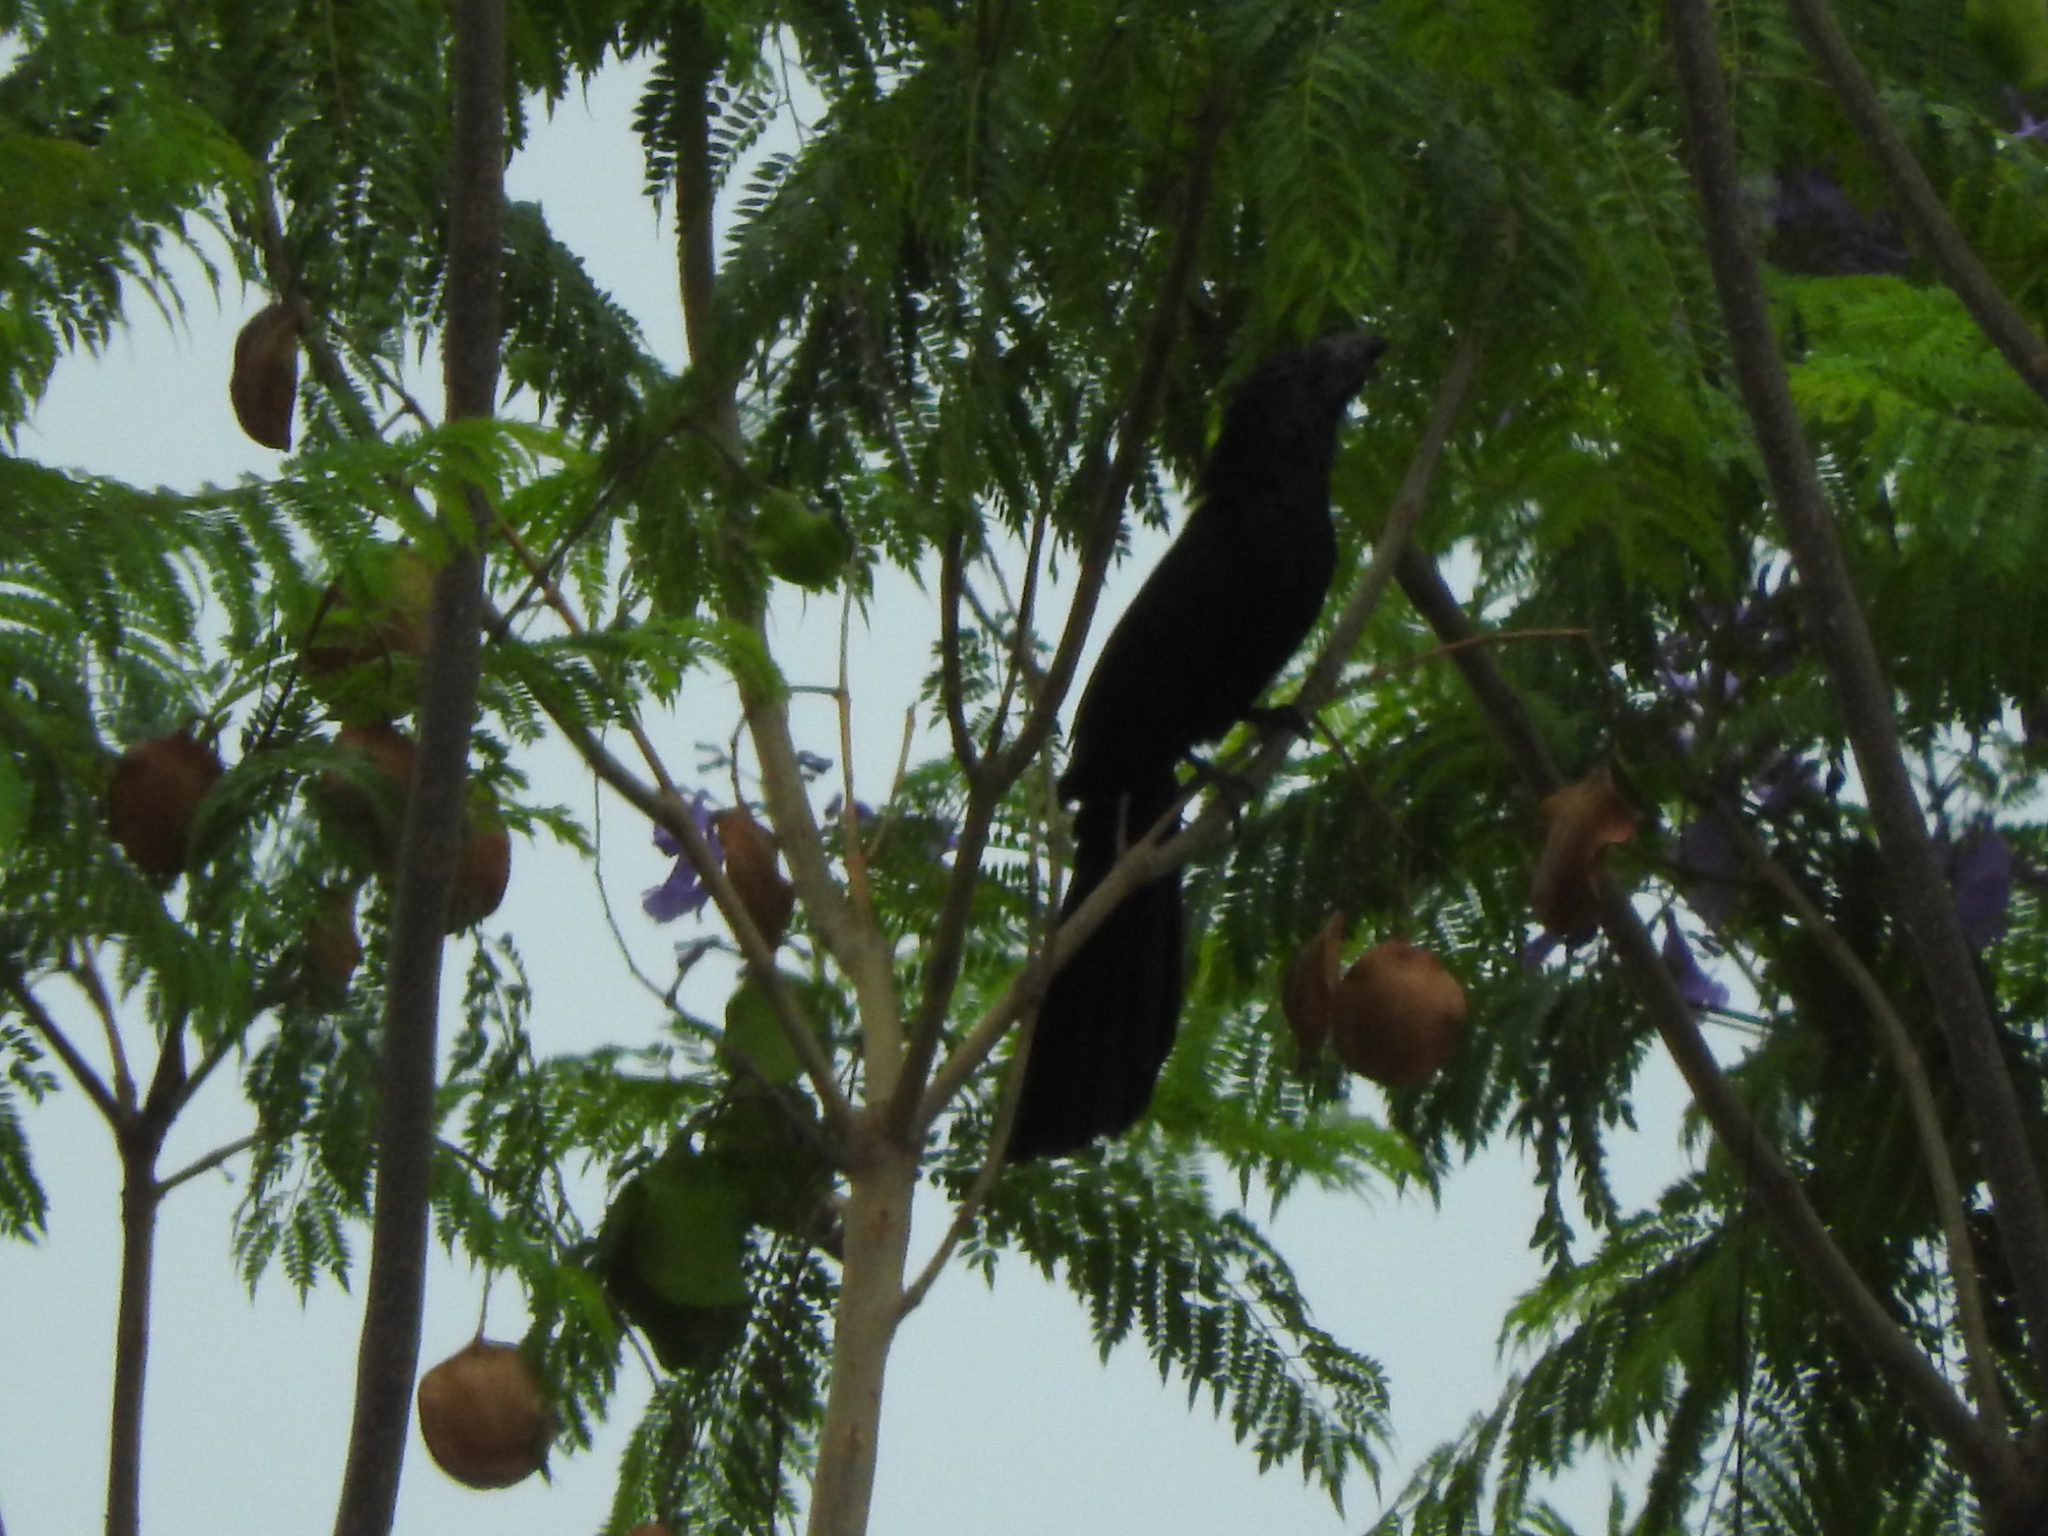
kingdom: Animalia
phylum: Chordata
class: Aves
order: Cuculiformes
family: Cuculidae
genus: Crotophaga
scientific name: Crotophaga sulcirostris
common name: Groove-billed ani
